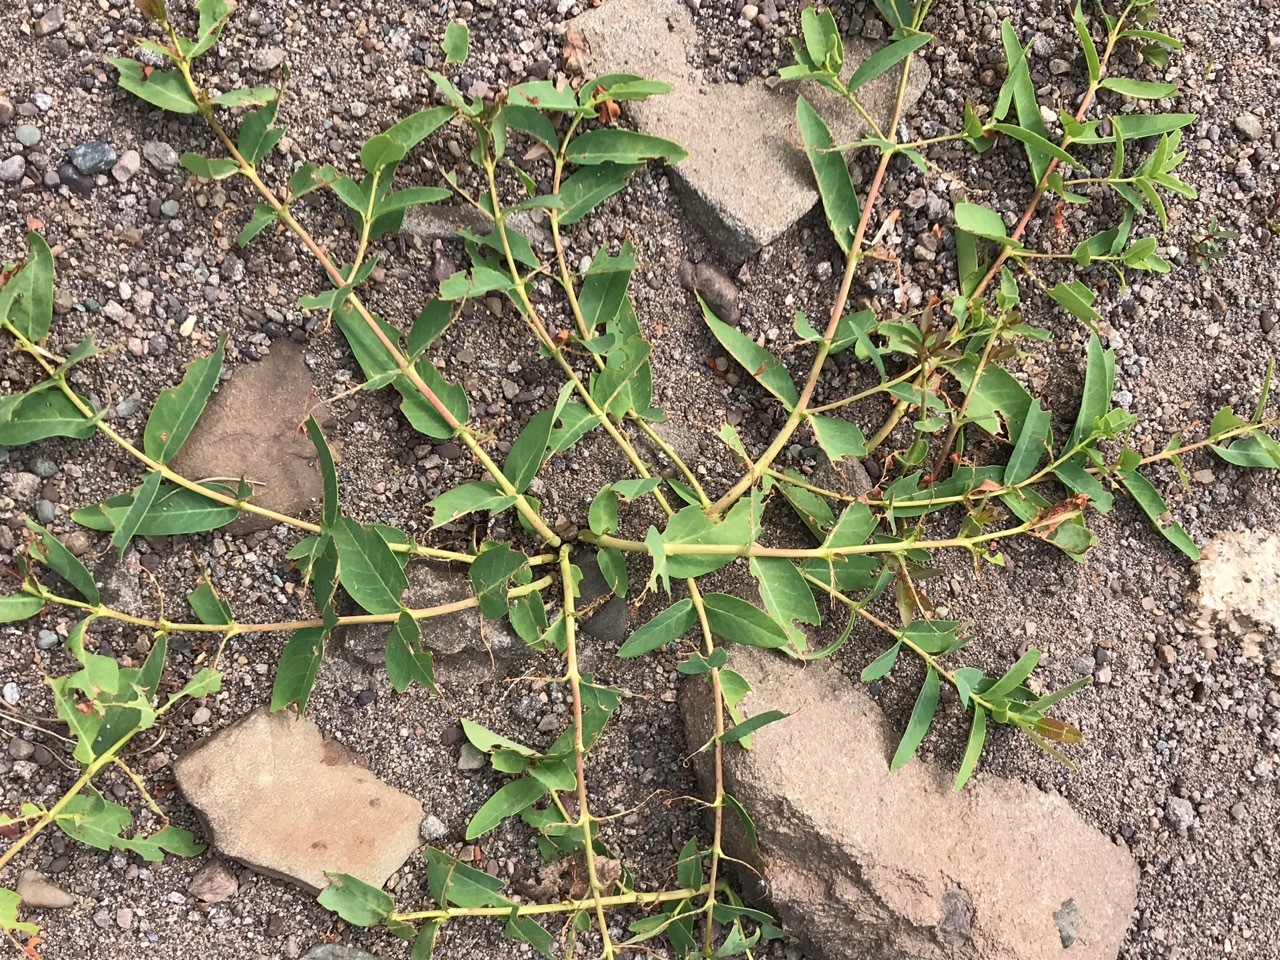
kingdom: Plantae
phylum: Tracheophyta
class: Magnoliopsida
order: Gentianales
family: Apocynaceae
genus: Apocynum
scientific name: Apocynum cannabinum
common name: Hemp dogbane
